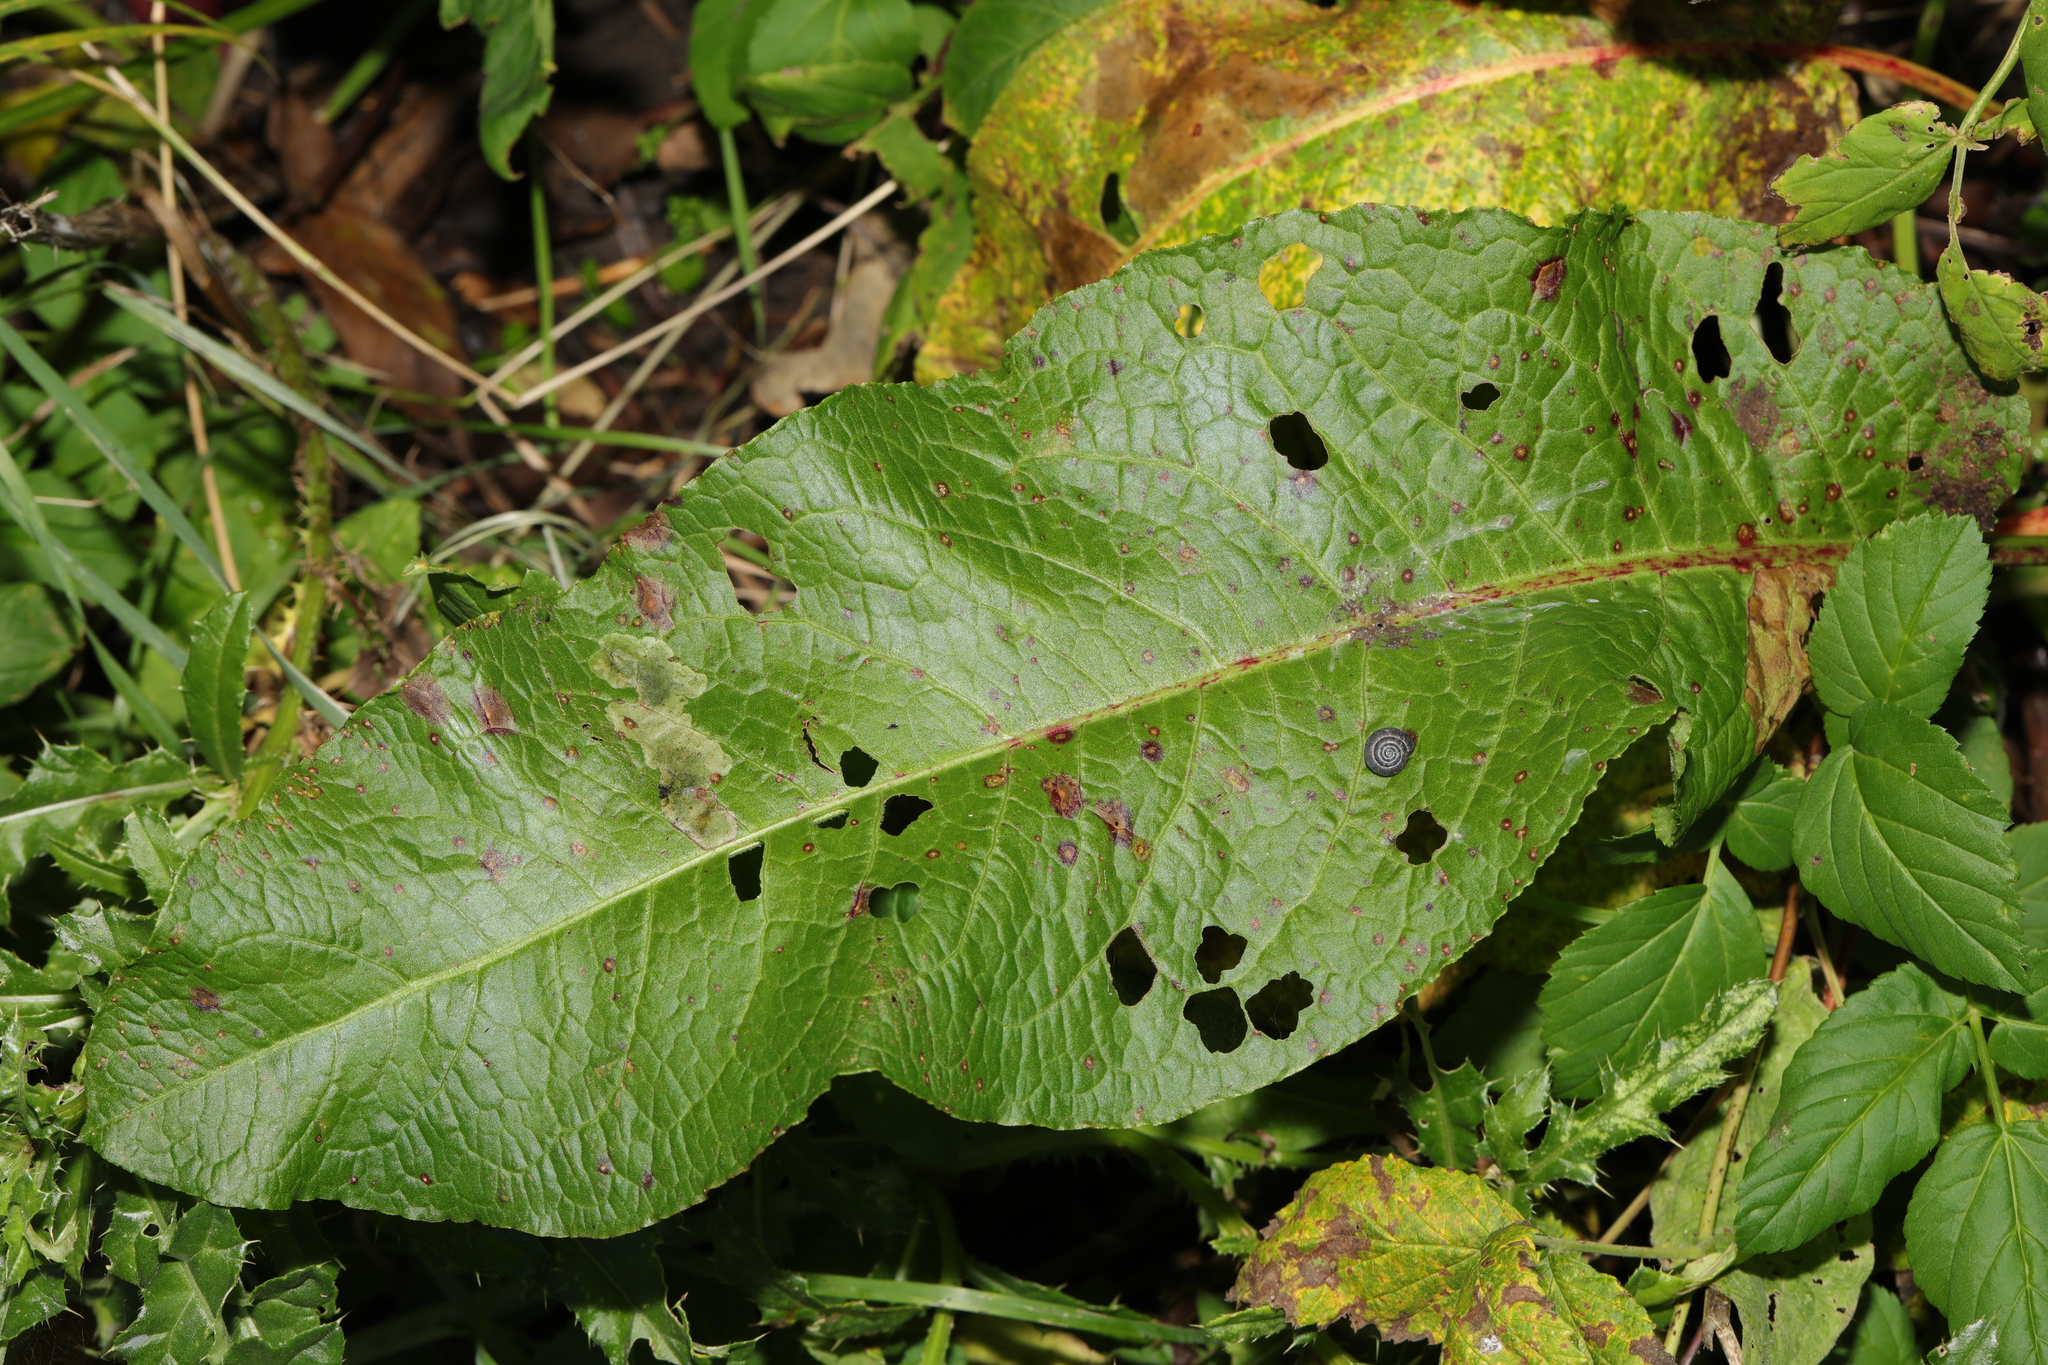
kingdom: Plantae
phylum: Tracheophyta
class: Magnoliopsida
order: Caryophyllales
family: Polygonaceae
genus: Rumex
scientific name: Rumex obtusifolius
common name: Bitter dock
